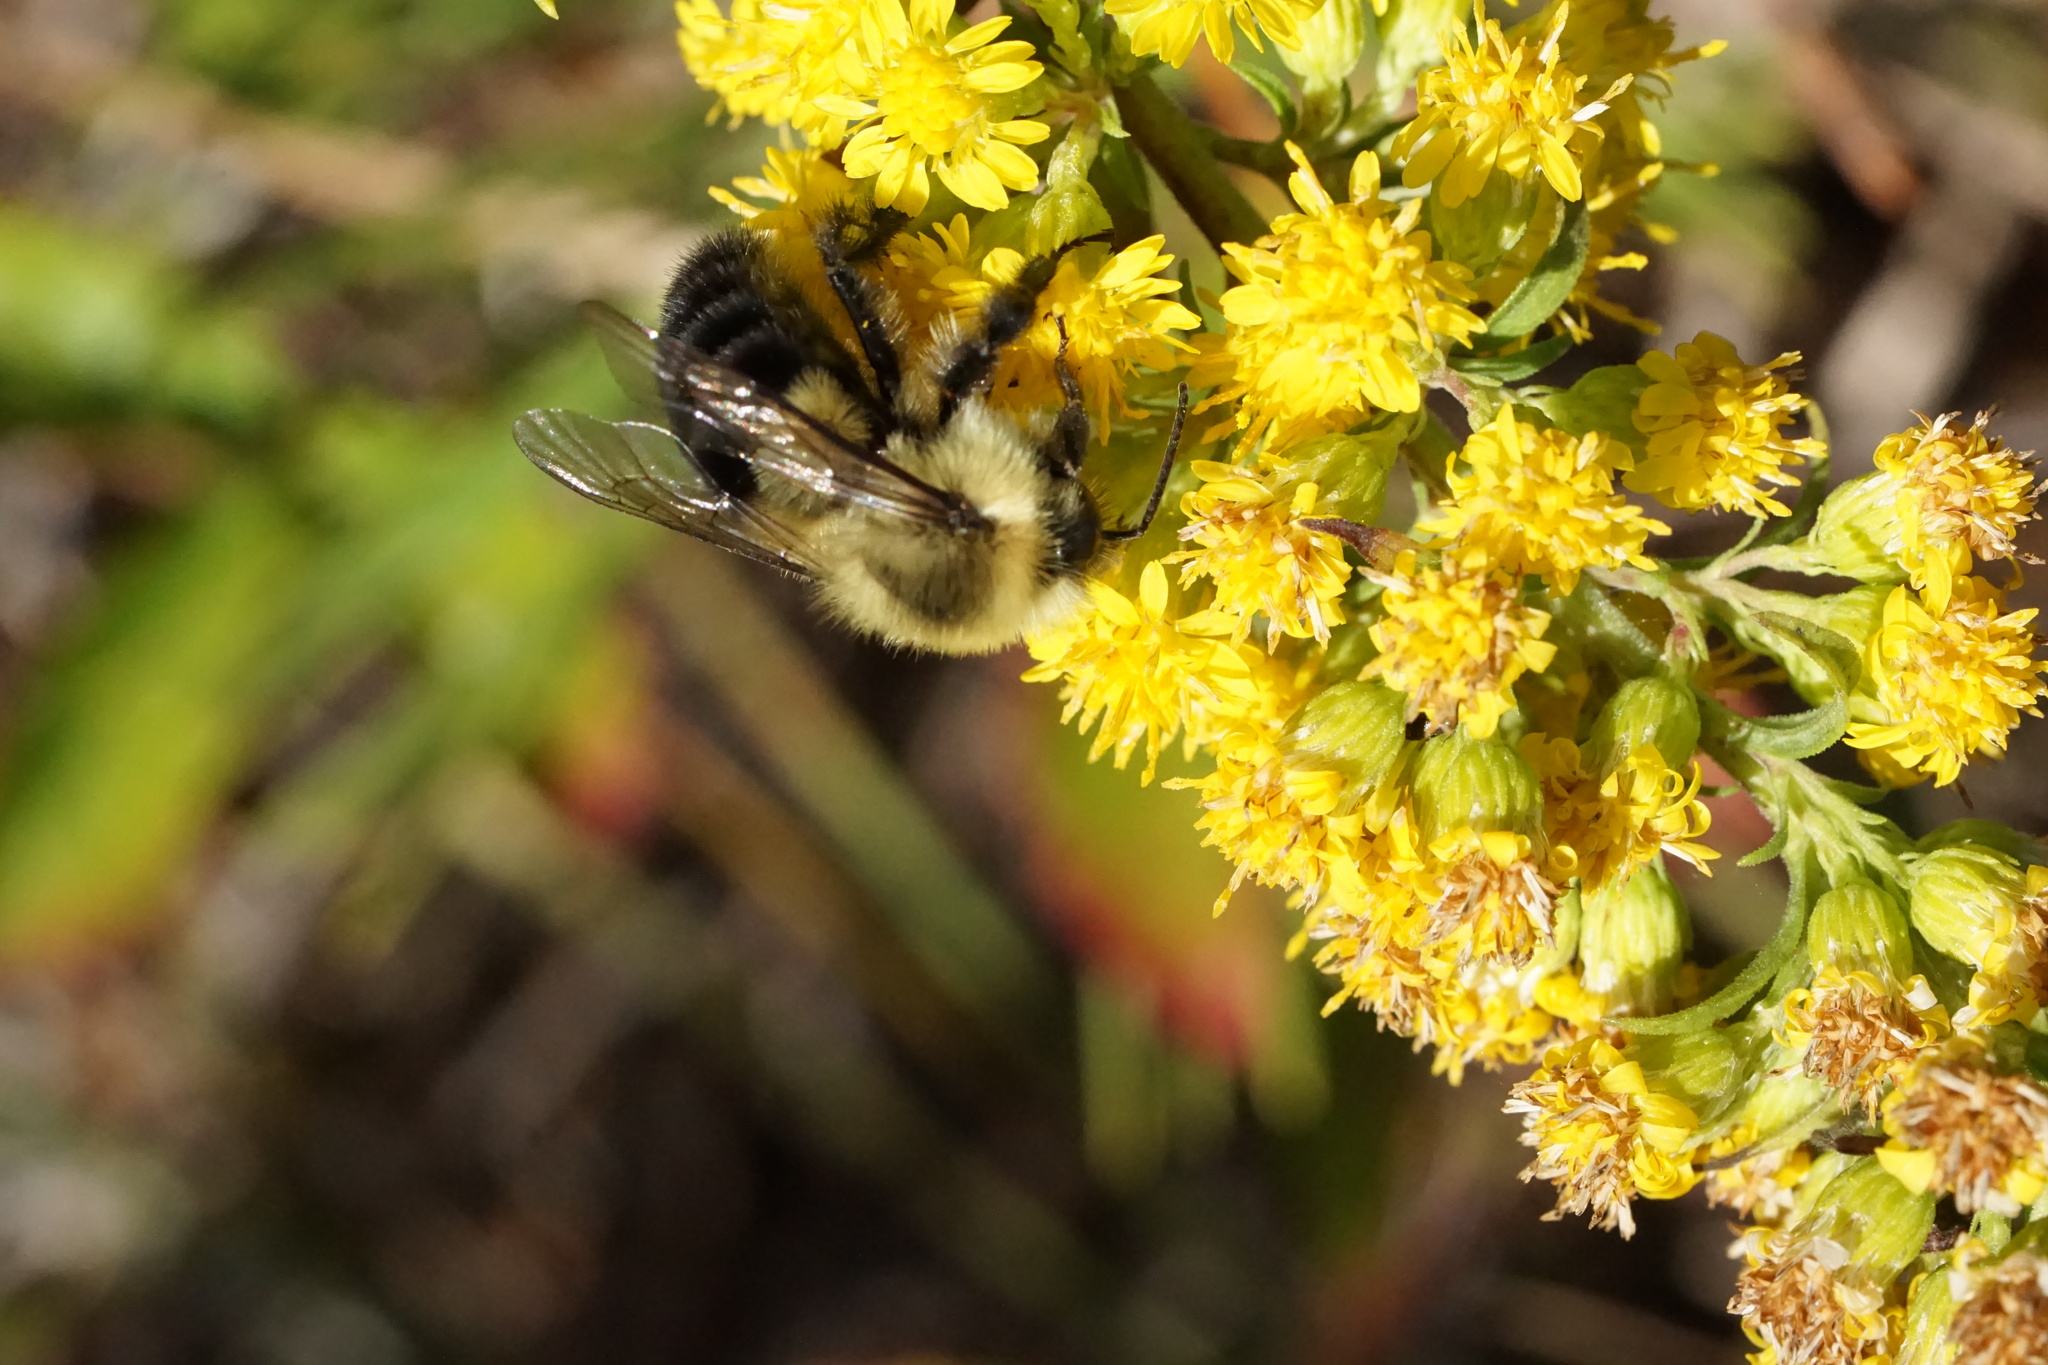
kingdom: Animalia
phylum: Arthropoda
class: Insecta
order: Hymenoptera
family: Apidae
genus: Bombus
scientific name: Bombus impatiens
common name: Common eastern bumble bee
